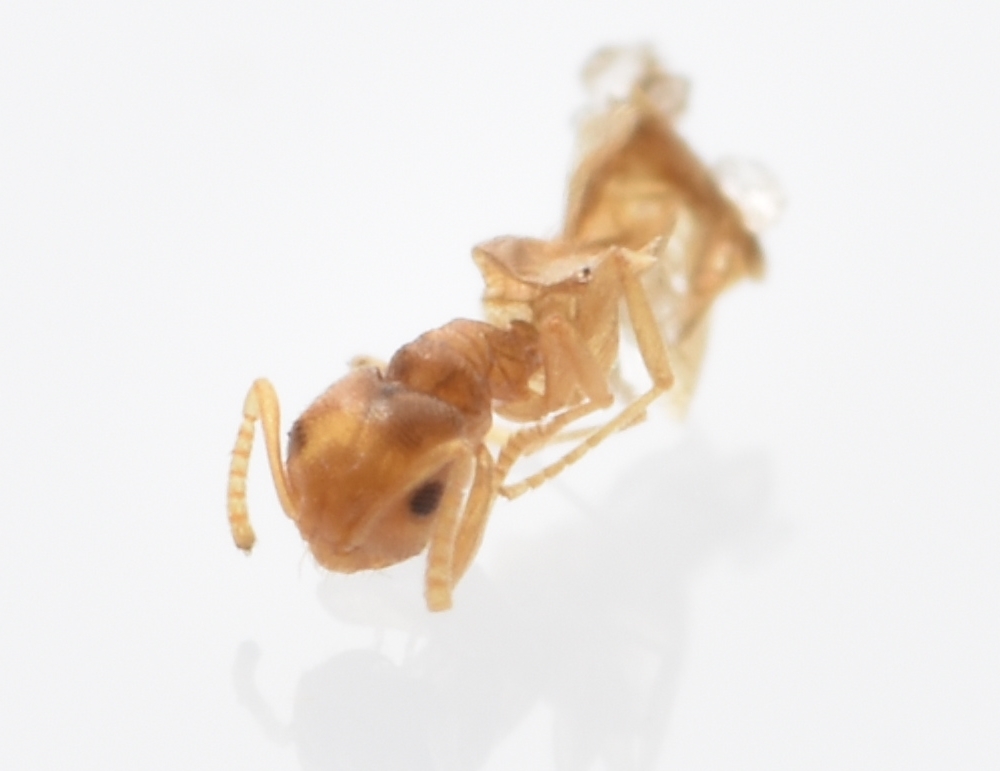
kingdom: Animalia
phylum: Arthropoda
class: Insecta
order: Hymenoptera
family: Formicidae
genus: Brachymyrmex
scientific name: Brachymyrmex depilis
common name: Hairless rover ant
